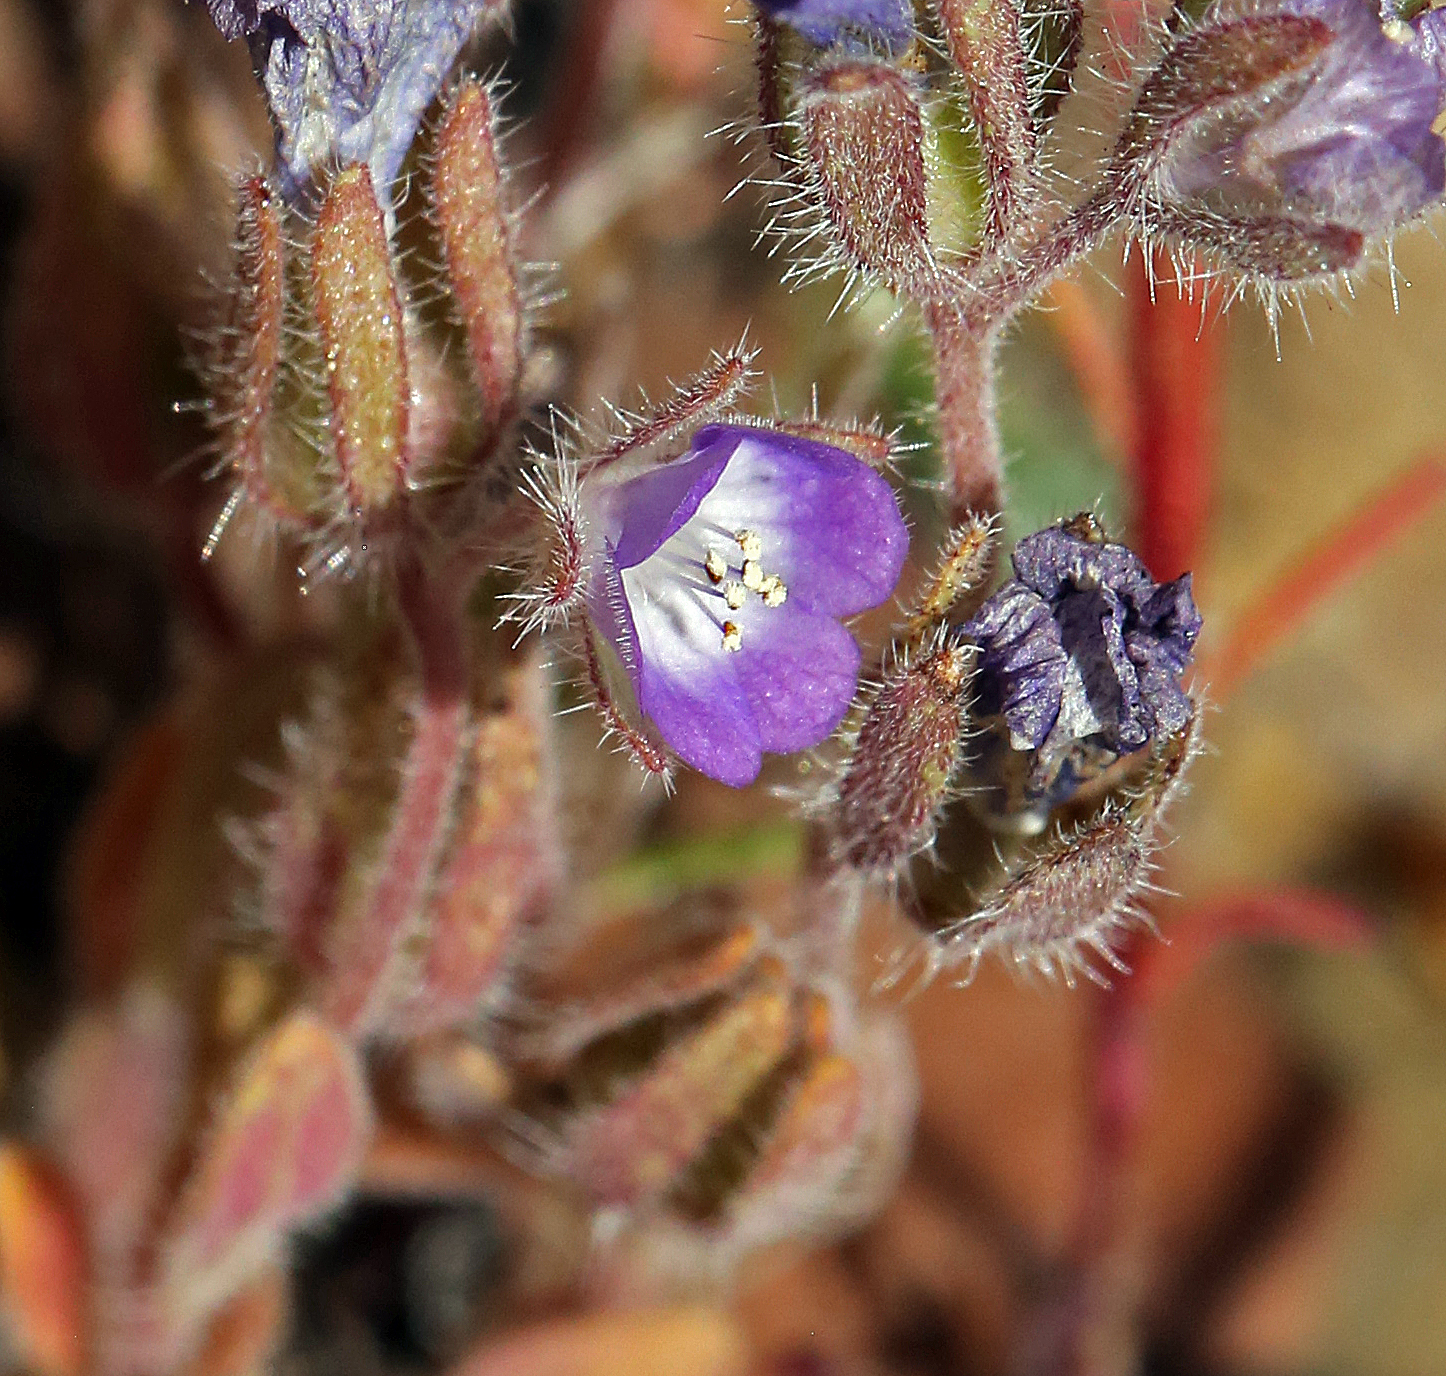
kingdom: Plantae
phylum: Tracheophyta
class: Magnoliopsida
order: Boraginales
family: Hydrophyllaceae
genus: Phacelia
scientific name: Phacelia curvipes
